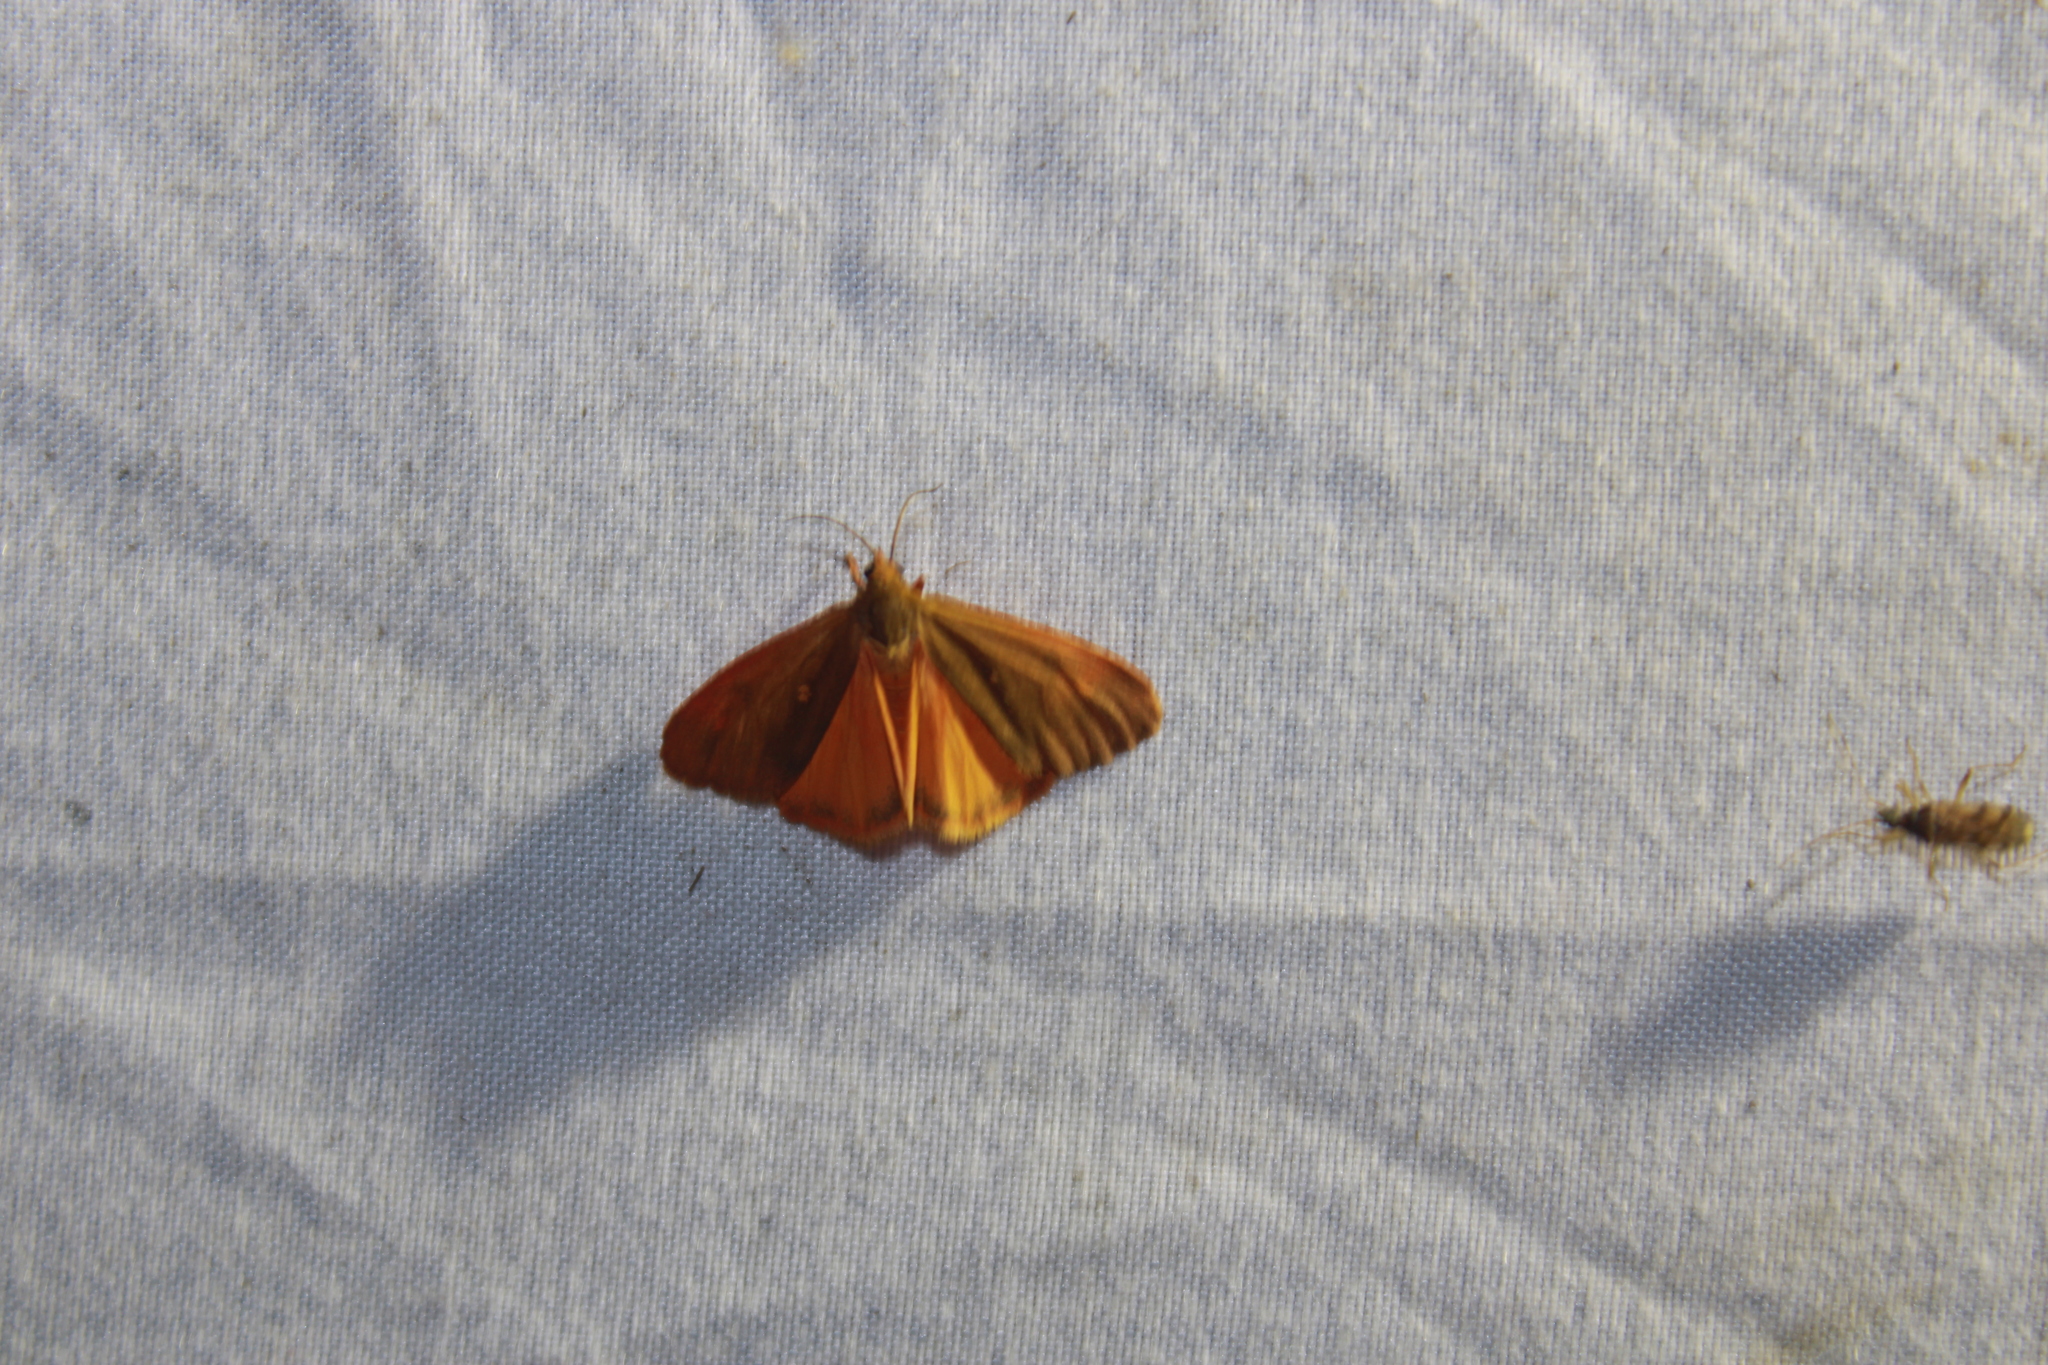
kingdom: Animalia
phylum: Arthropoda
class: Insecta
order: Lepidoptera
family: Erebidae
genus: Virbia
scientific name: Virbia aurantiaca
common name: Orange virbia moth
